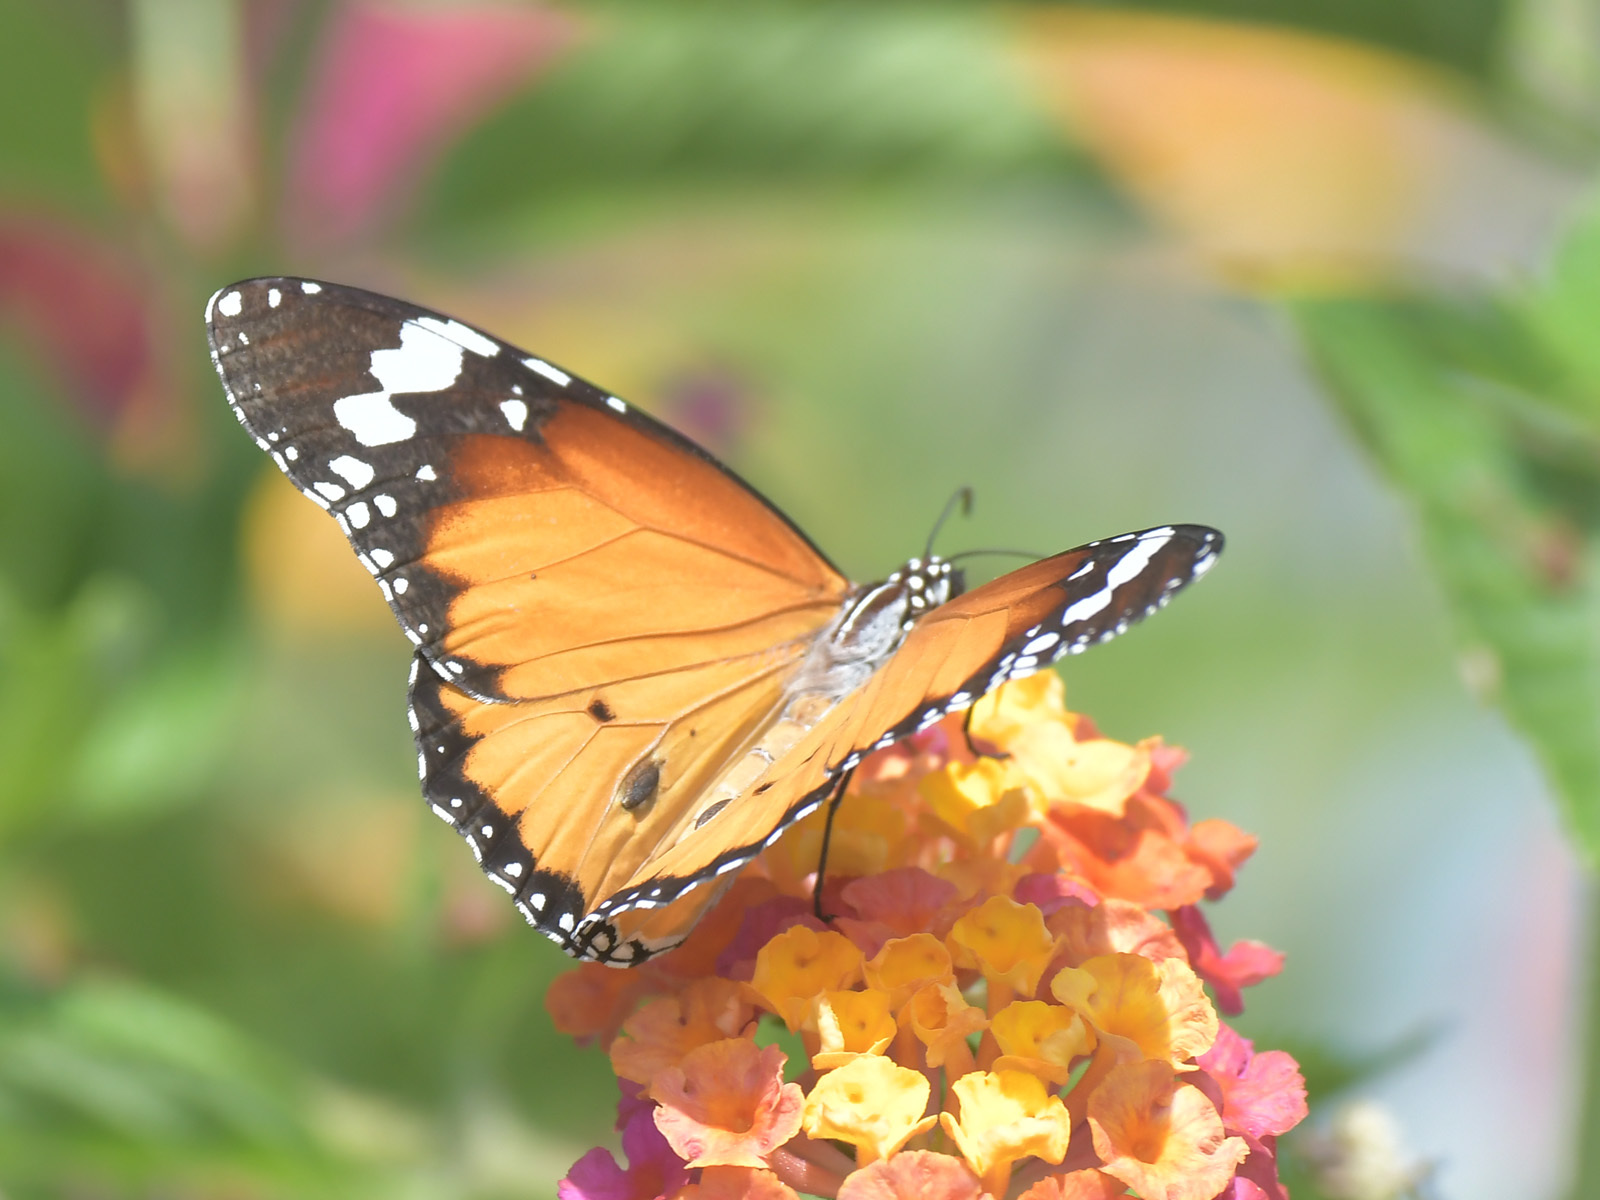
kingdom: Animalia
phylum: Arthropoda
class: Insecta
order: Lepidoptera
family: Nymphalidae
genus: Danaus
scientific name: Danaus chrysippus
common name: Plain tiger
